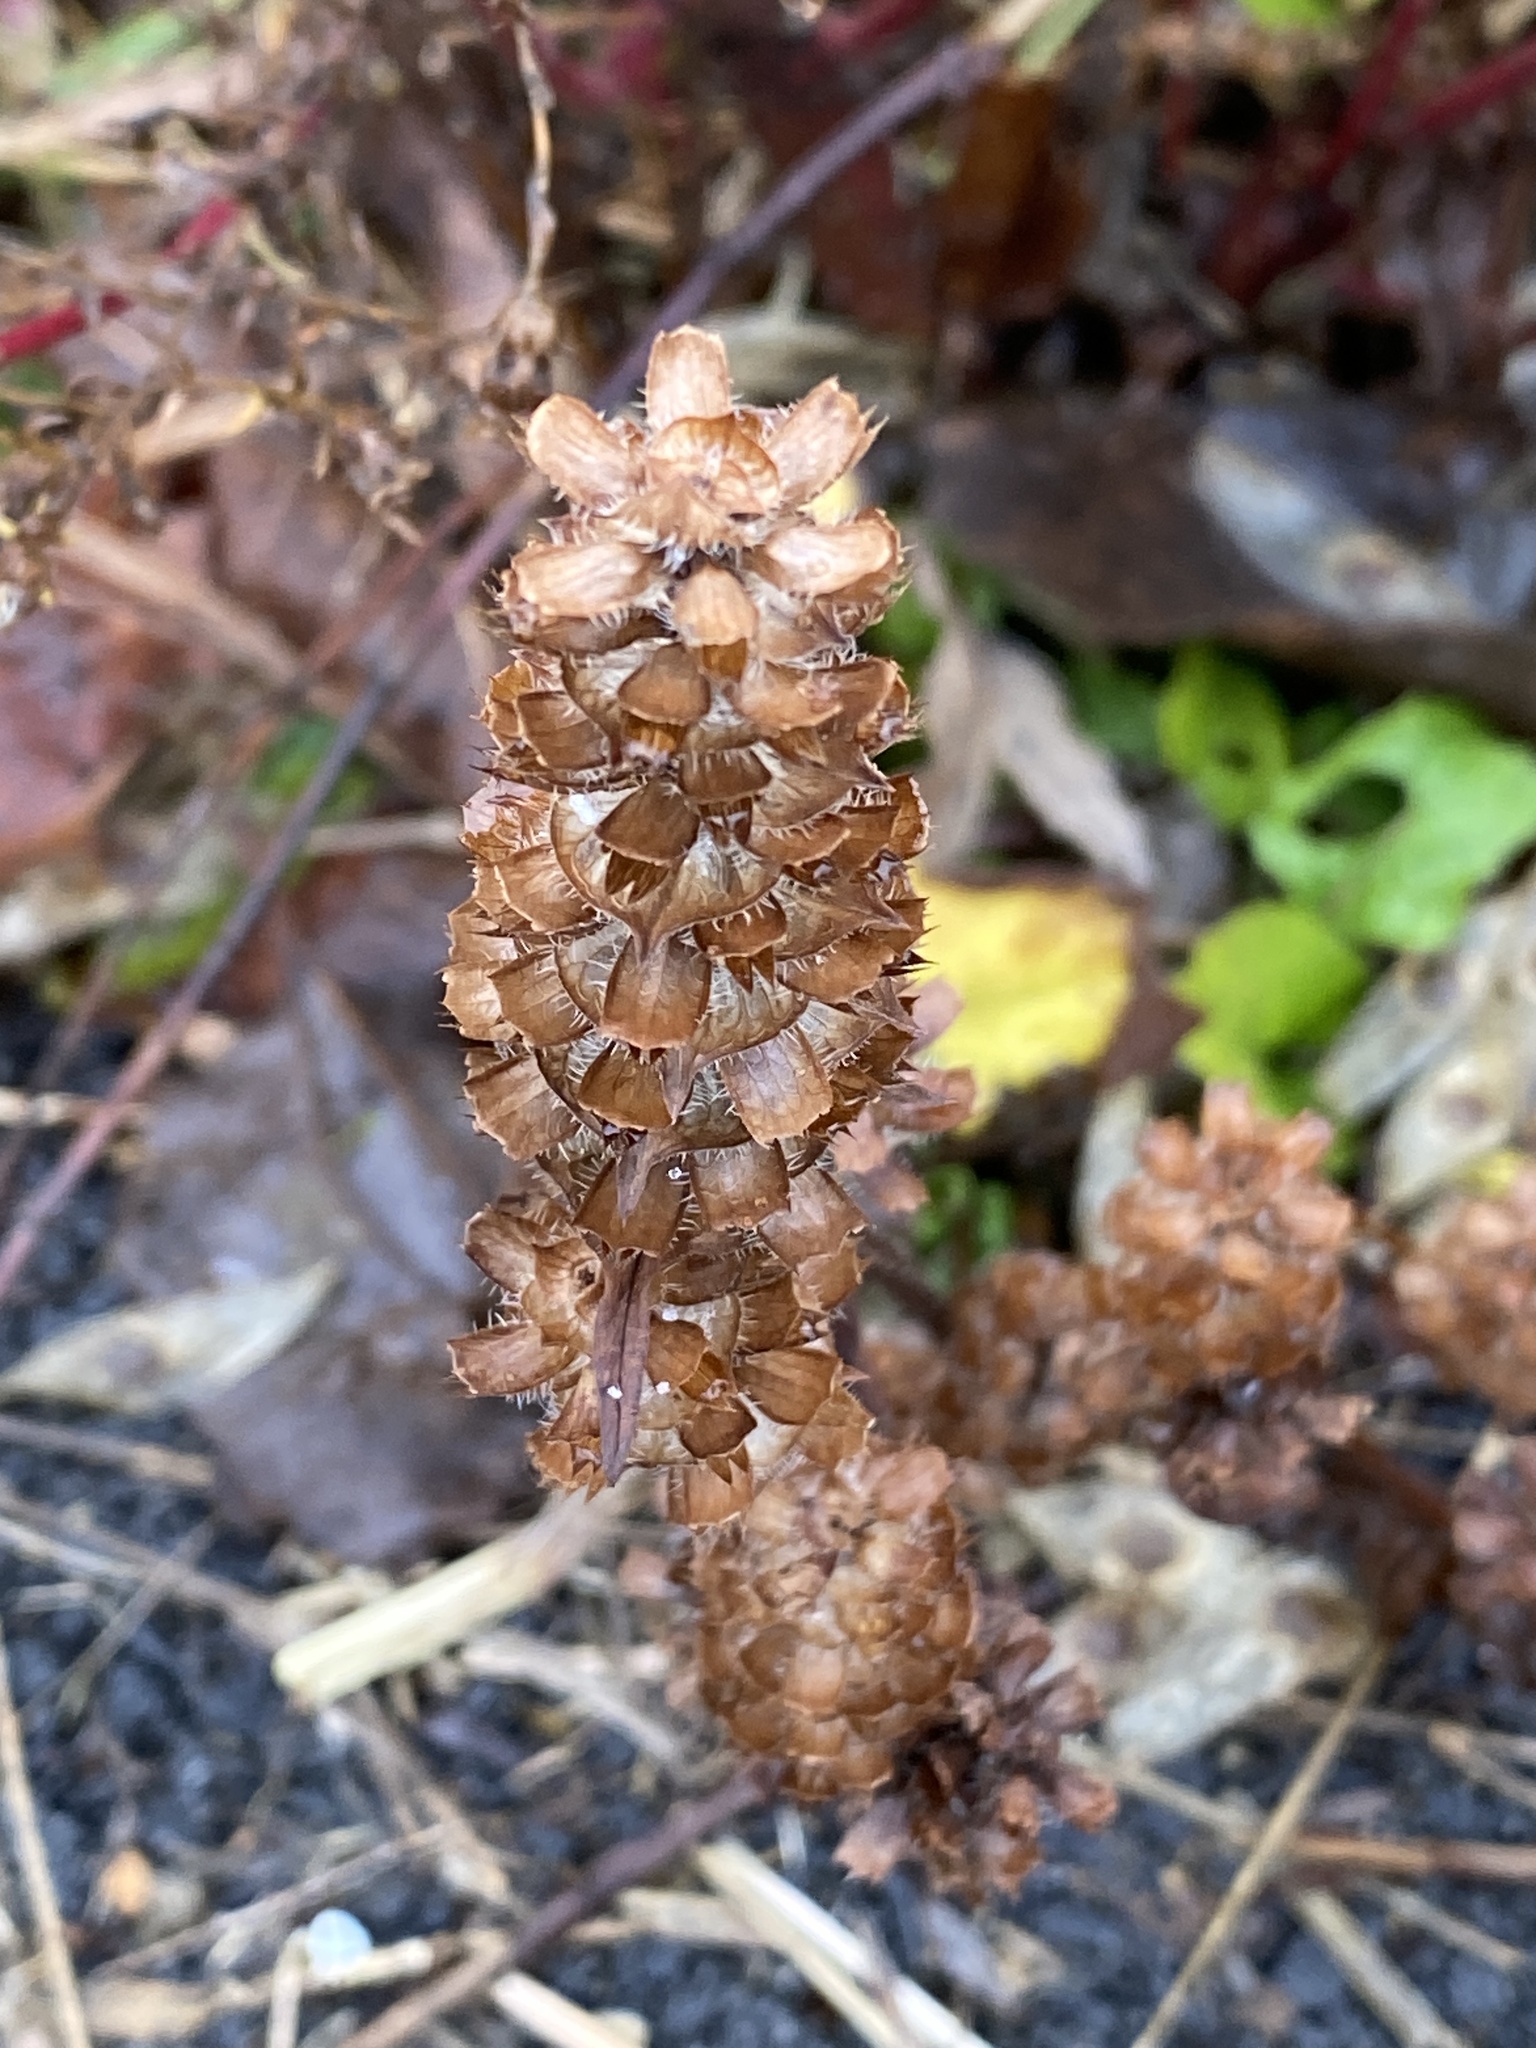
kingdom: Plantae
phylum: Tracheophyta
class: Magnoliopsida
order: Lamiales
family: Lamiaceae
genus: Prunella
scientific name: Prunella vulgaris
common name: Heal-all
